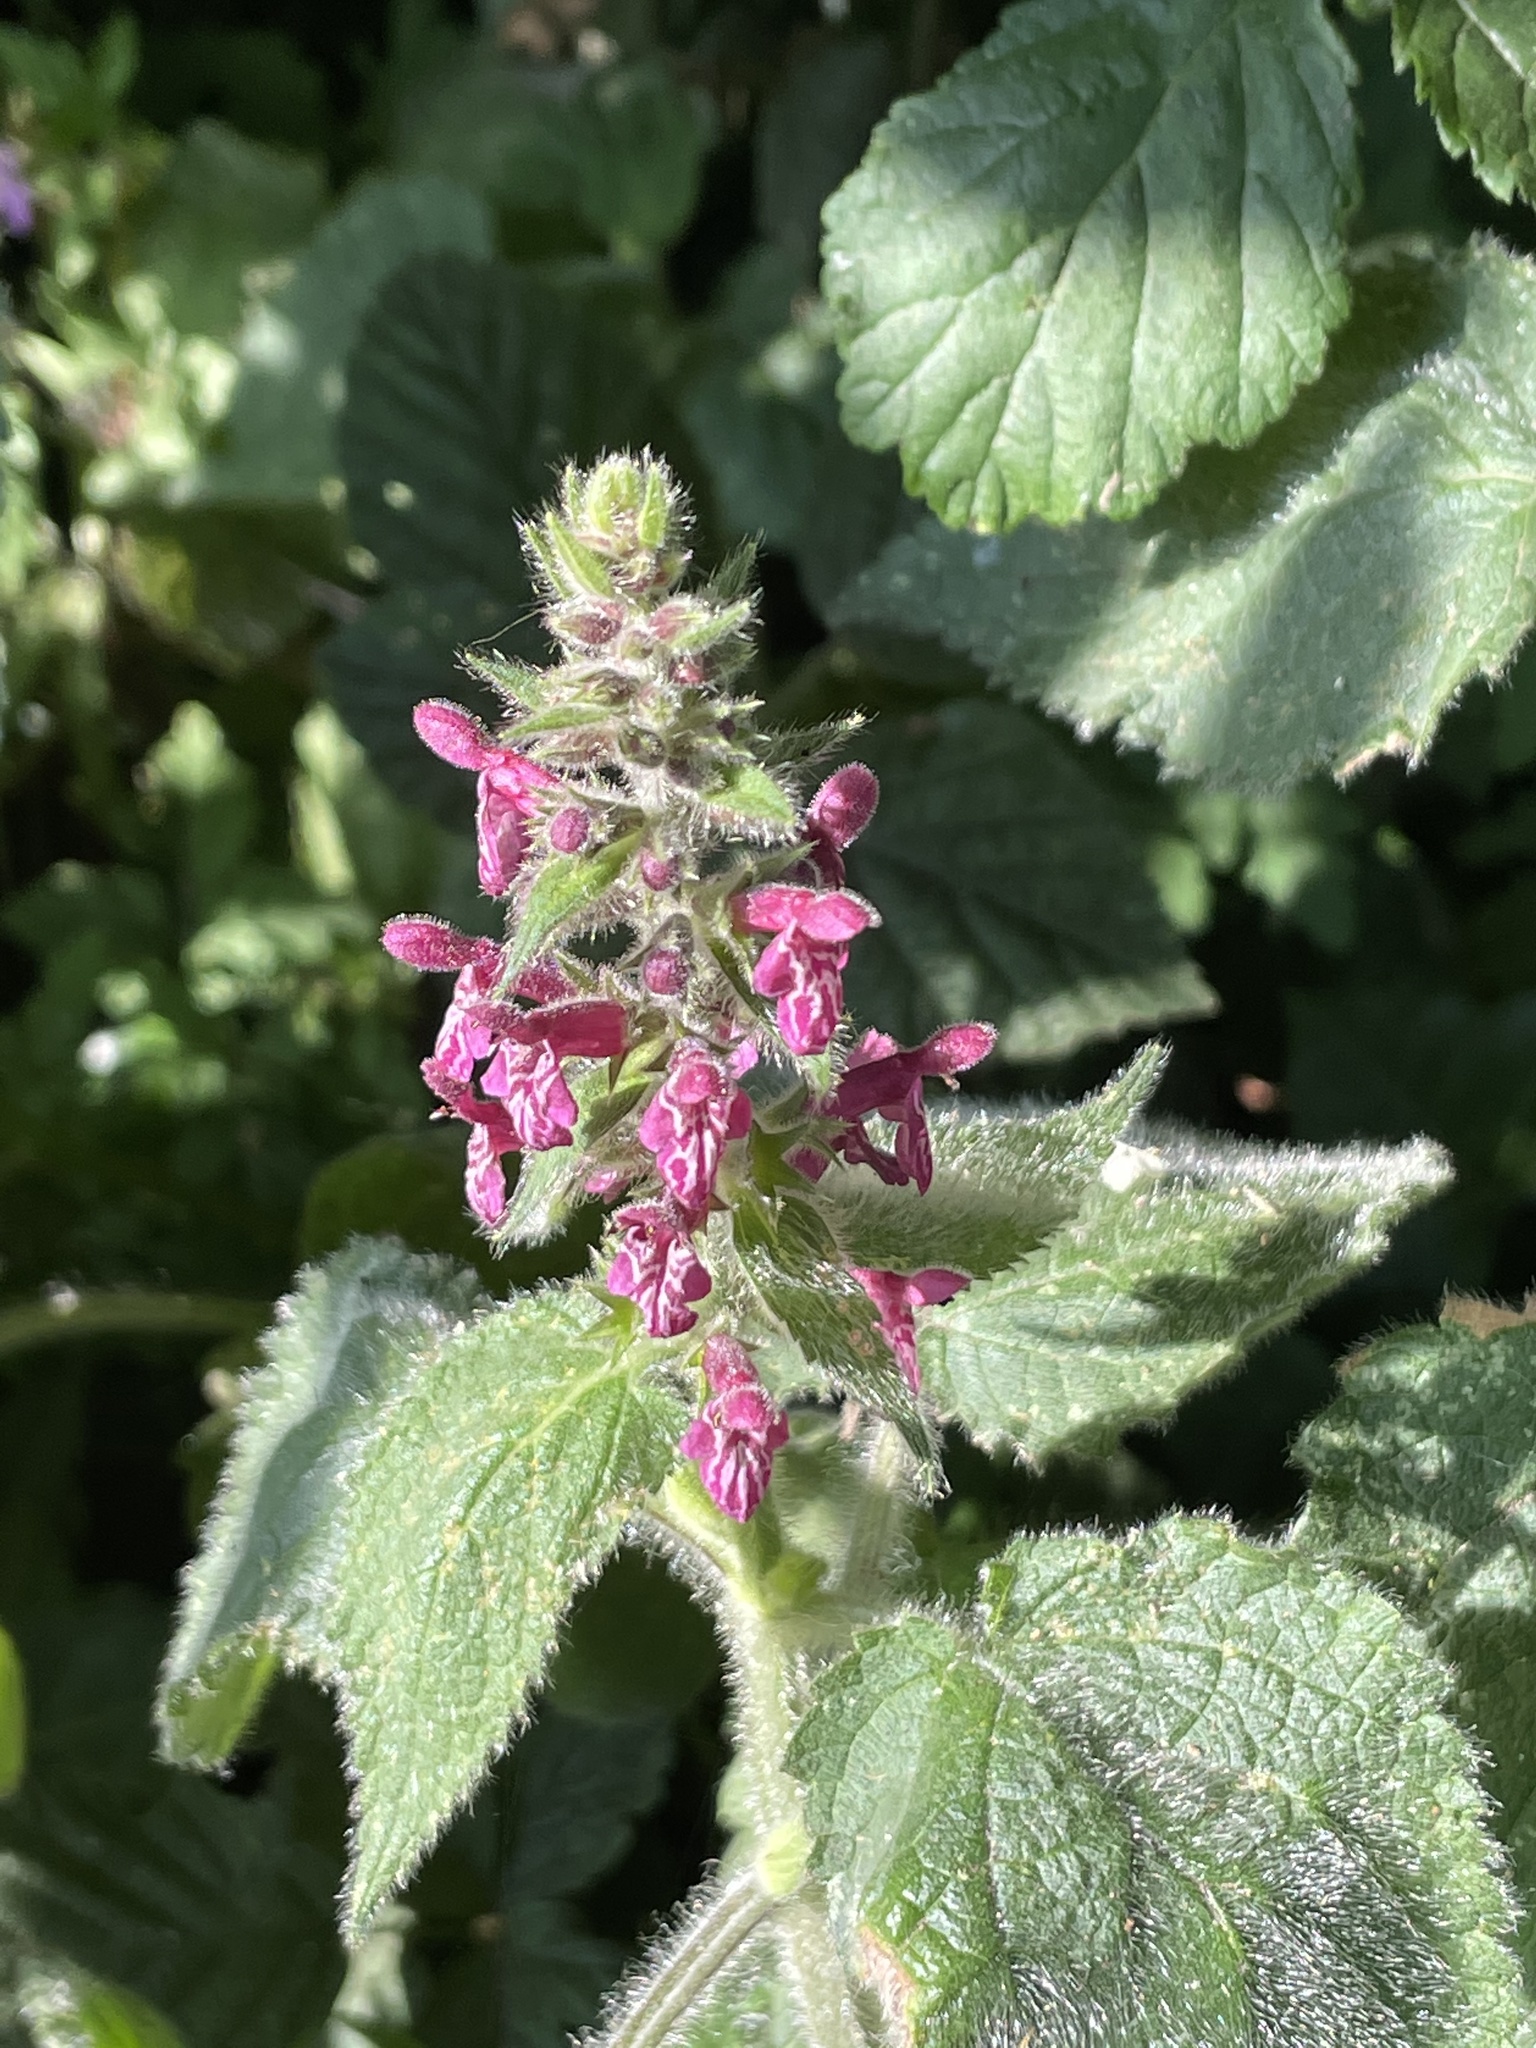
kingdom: Plantae
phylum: Tracheophyta
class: Magnoliopsida
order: Lamiales
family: Lamiaceae
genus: Stachys
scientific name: Stachys sylvatica
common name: Hedge woundwort
